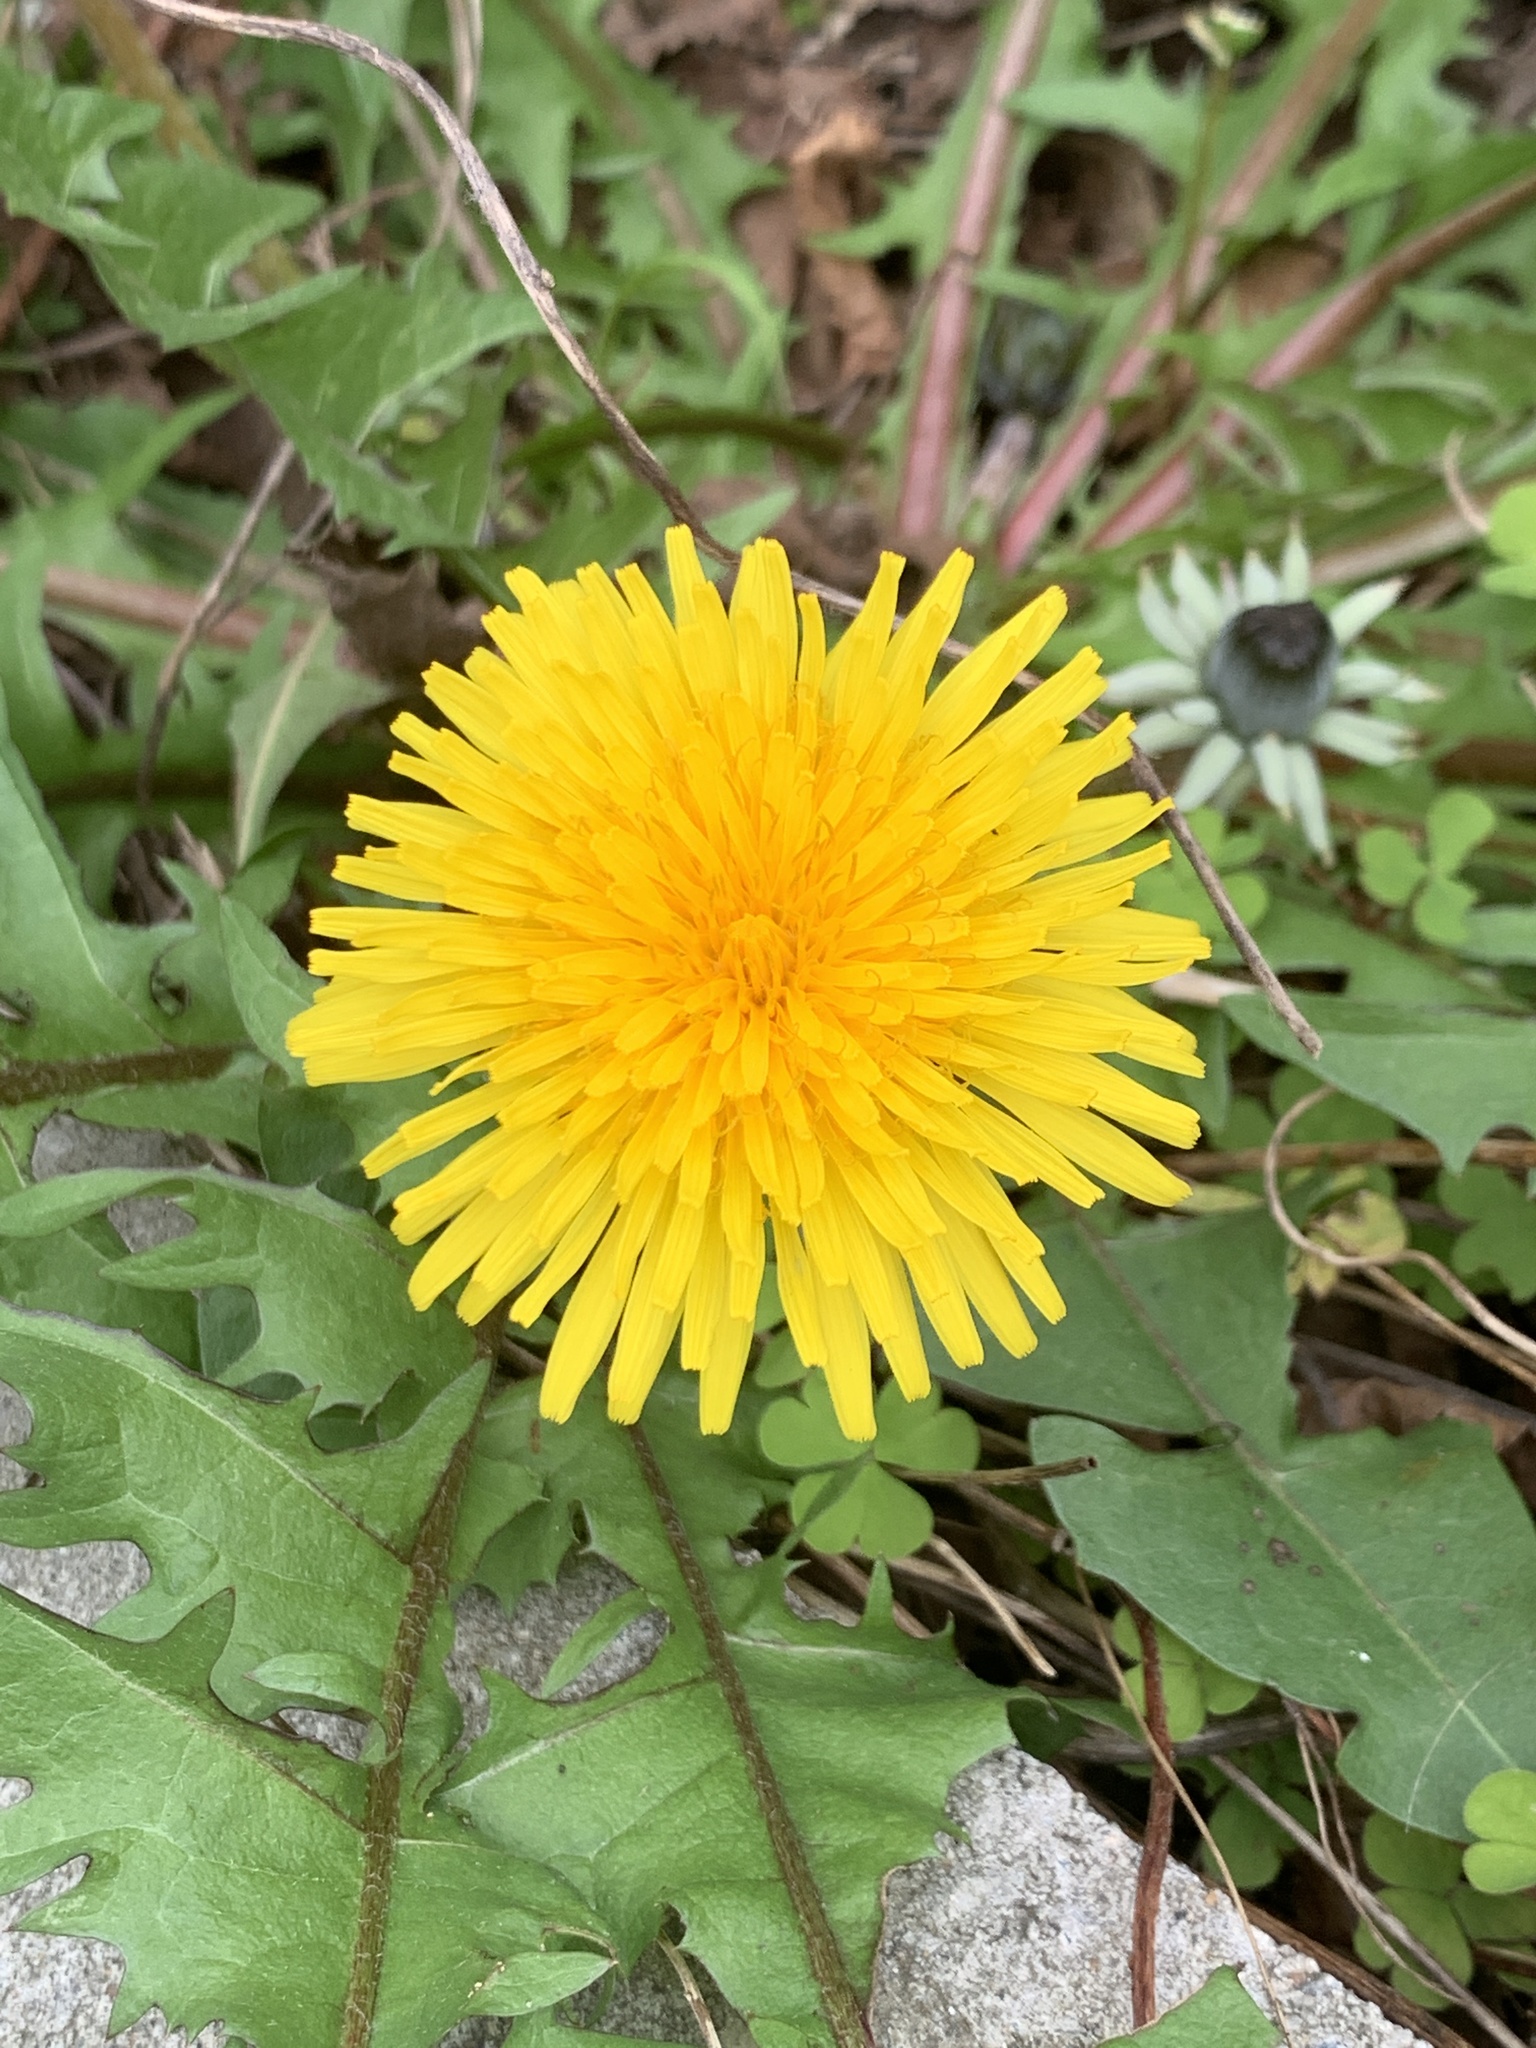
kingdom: Plantae
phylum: Tracheophyta
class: Magnoliopsida
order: Asterales
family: Asteraceae
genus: Taraxacum
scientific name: Taraxacum officinale
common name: Common dandelion
